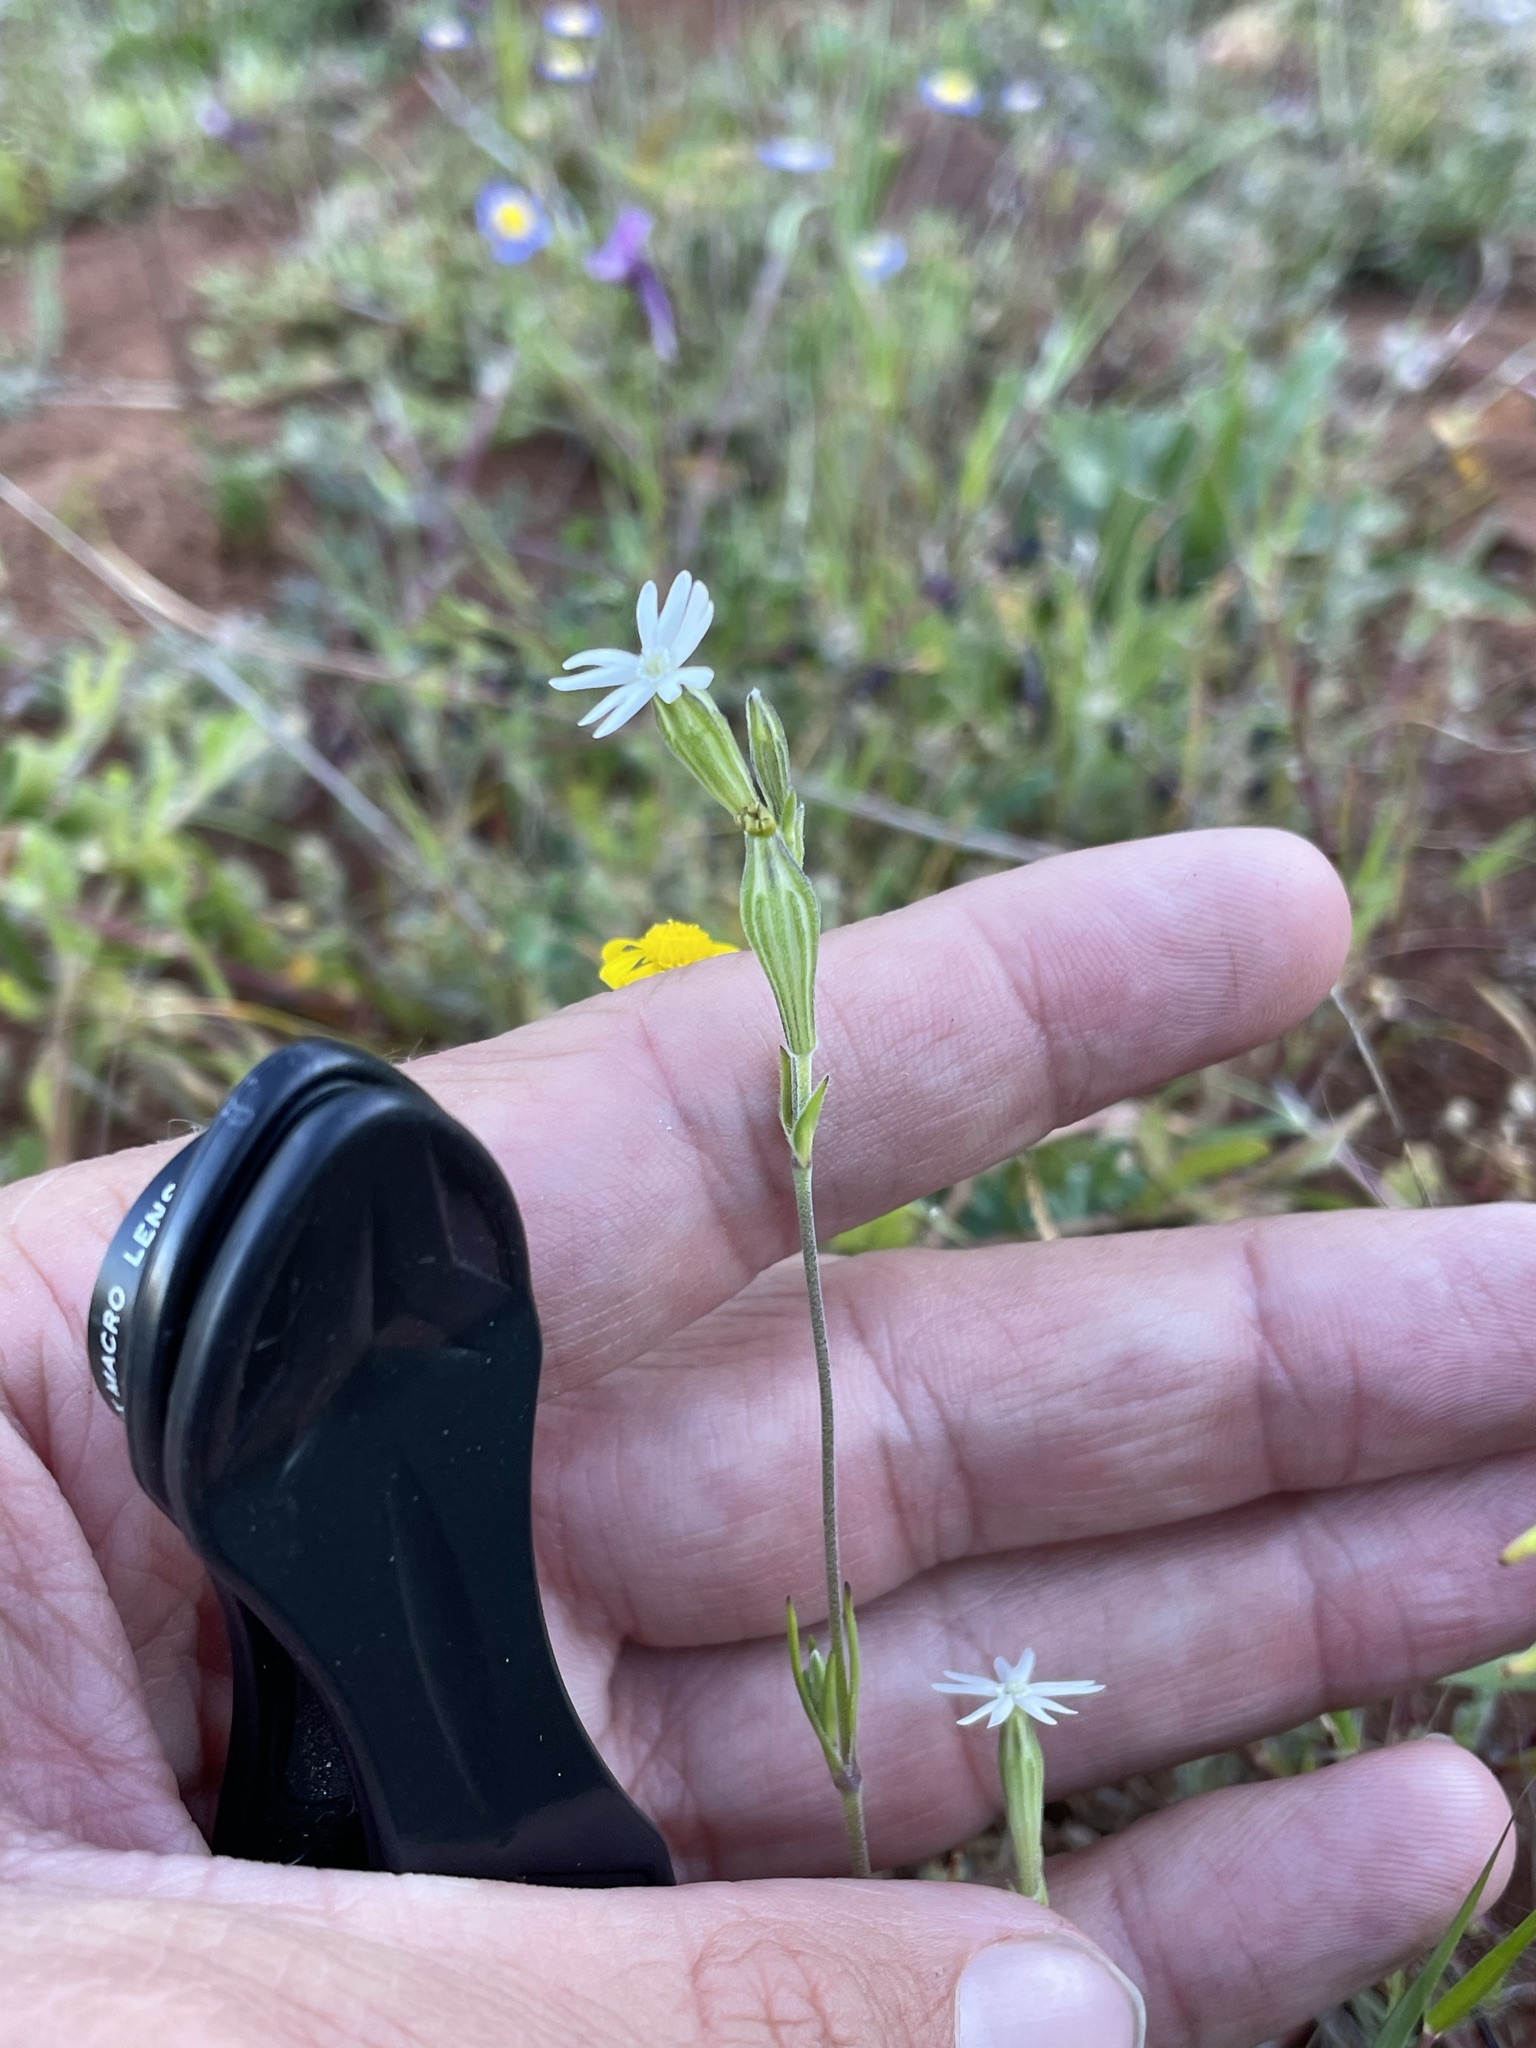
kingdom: Plantae
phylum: Tracheophyta
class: Magnoliopsida
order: Caryophyllales
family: Caryophyllaceae
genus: Silene
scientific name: Silene aethiopica
